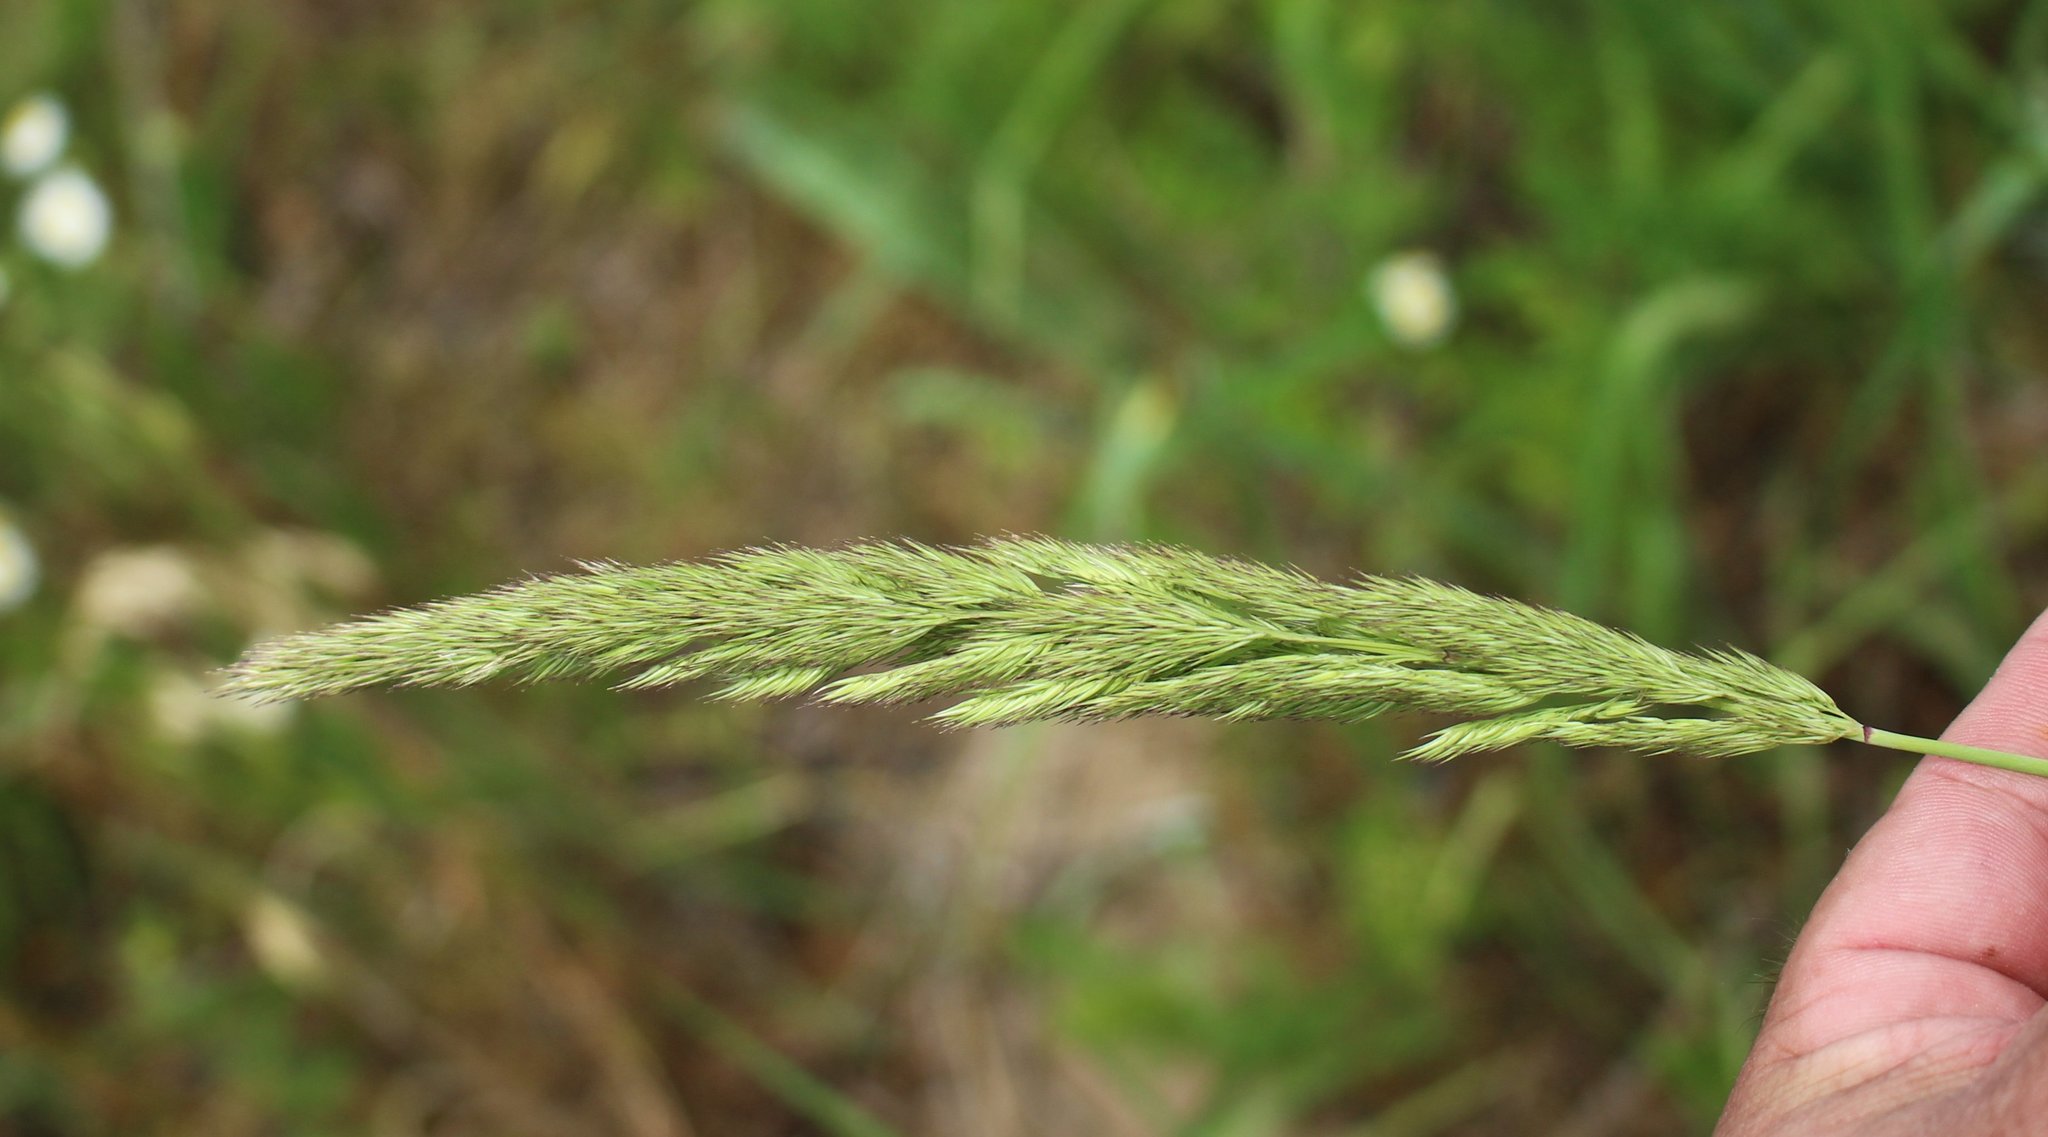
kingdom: Plantae
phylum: Tracheophyta
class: Liliopsida
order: Poales
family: Poaceae
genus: Calamagrostis
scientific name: Calamagrostis epigejos
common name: Wood small-reed
